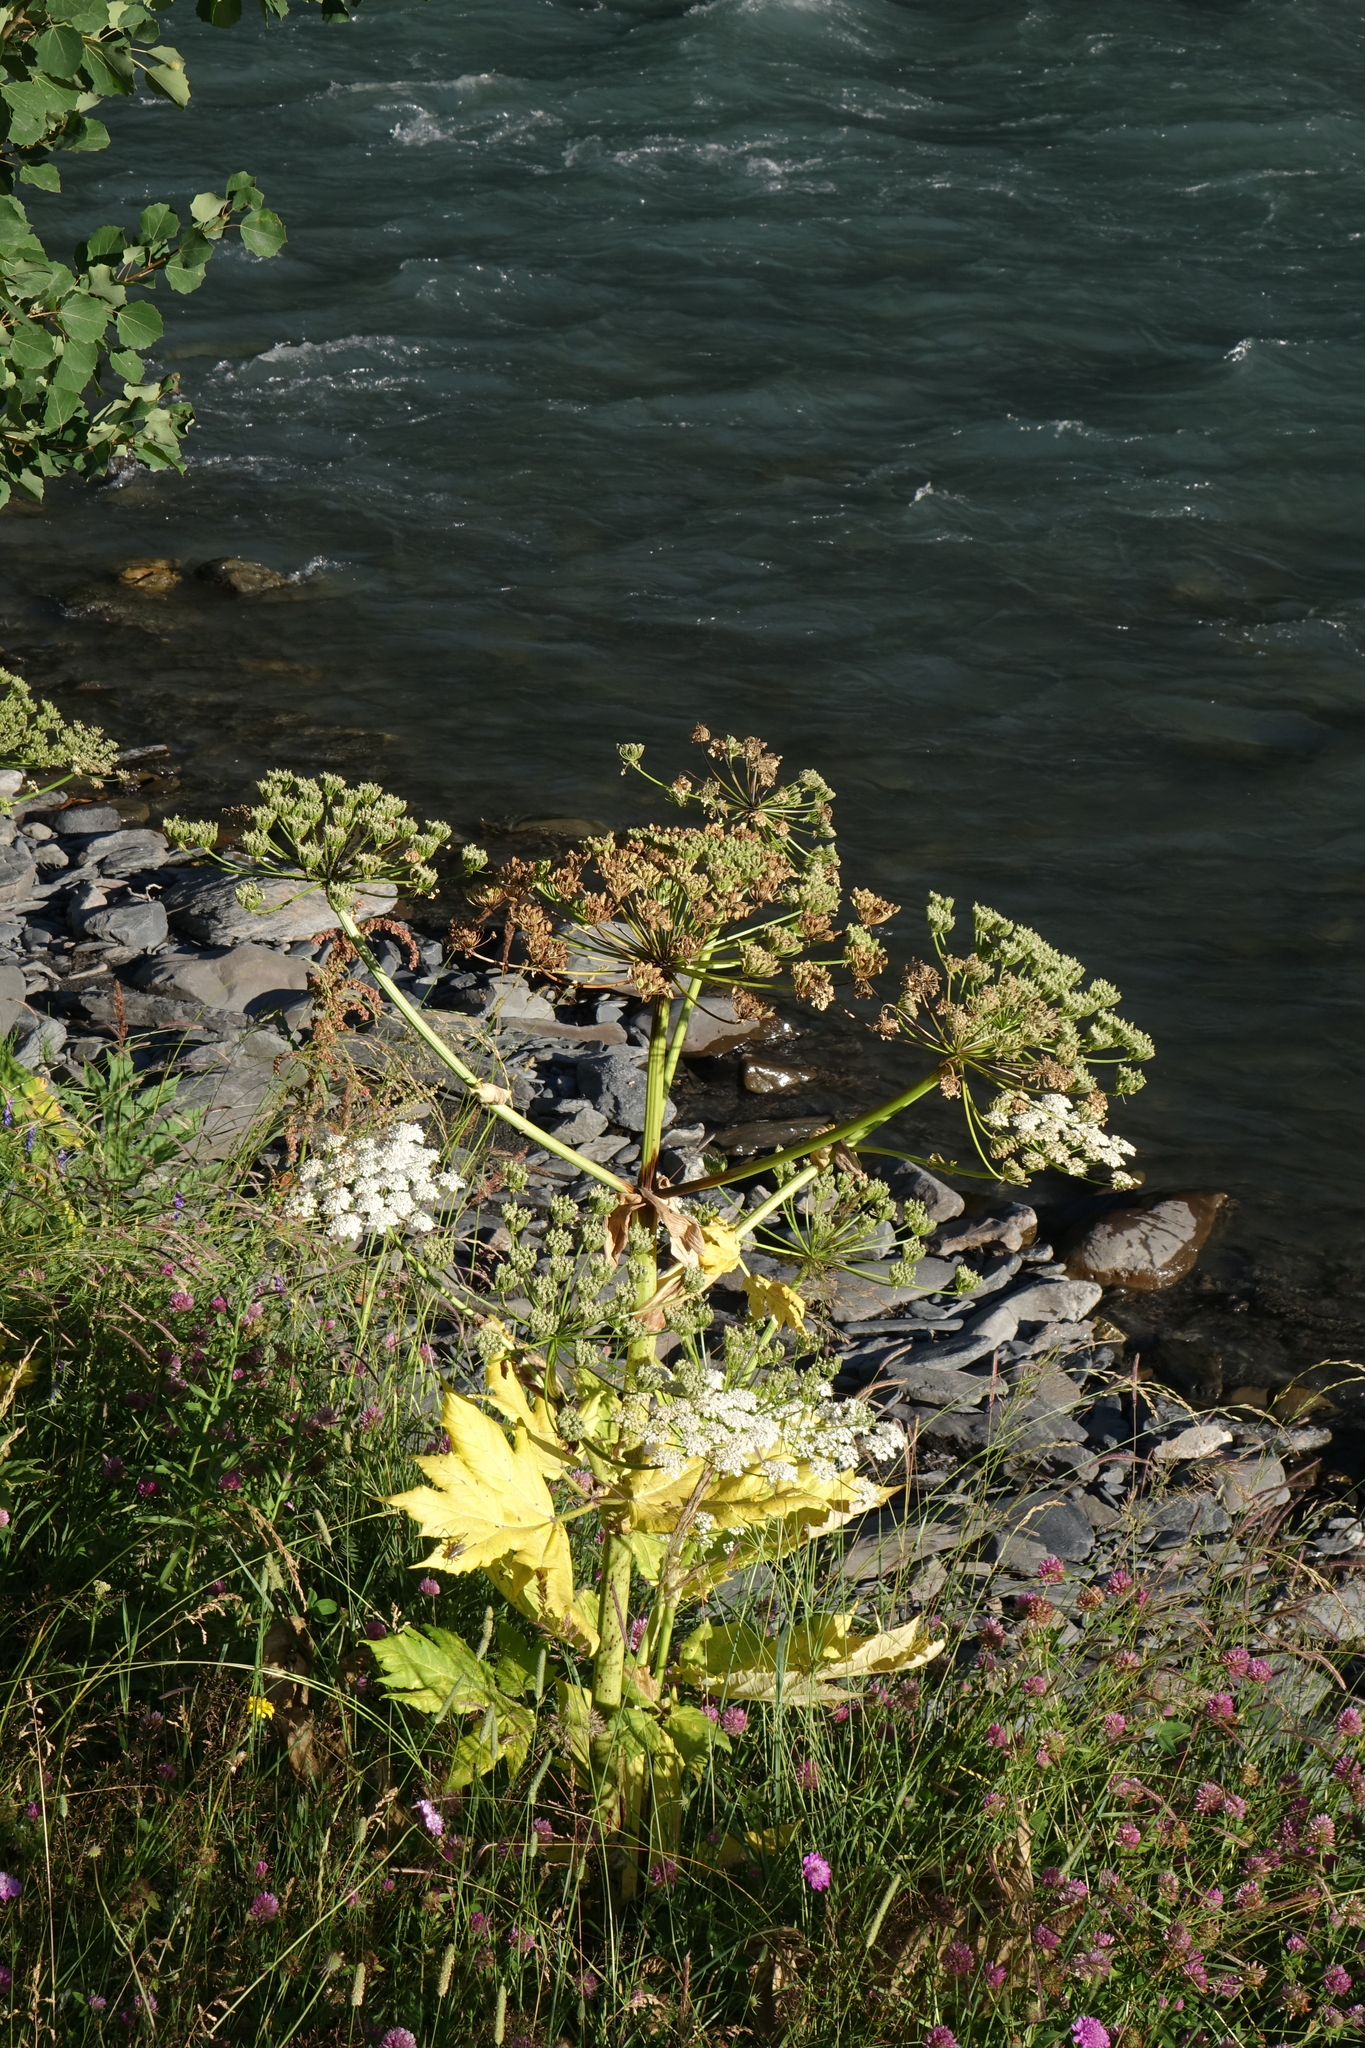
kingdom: Plantae
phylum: Tracheophyta
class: Magnoliopsida
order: Apiales
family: Apiaceae
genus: Heracleum
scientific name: Heracleum sosnowskyi
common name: Sosnowsky's hogweed
